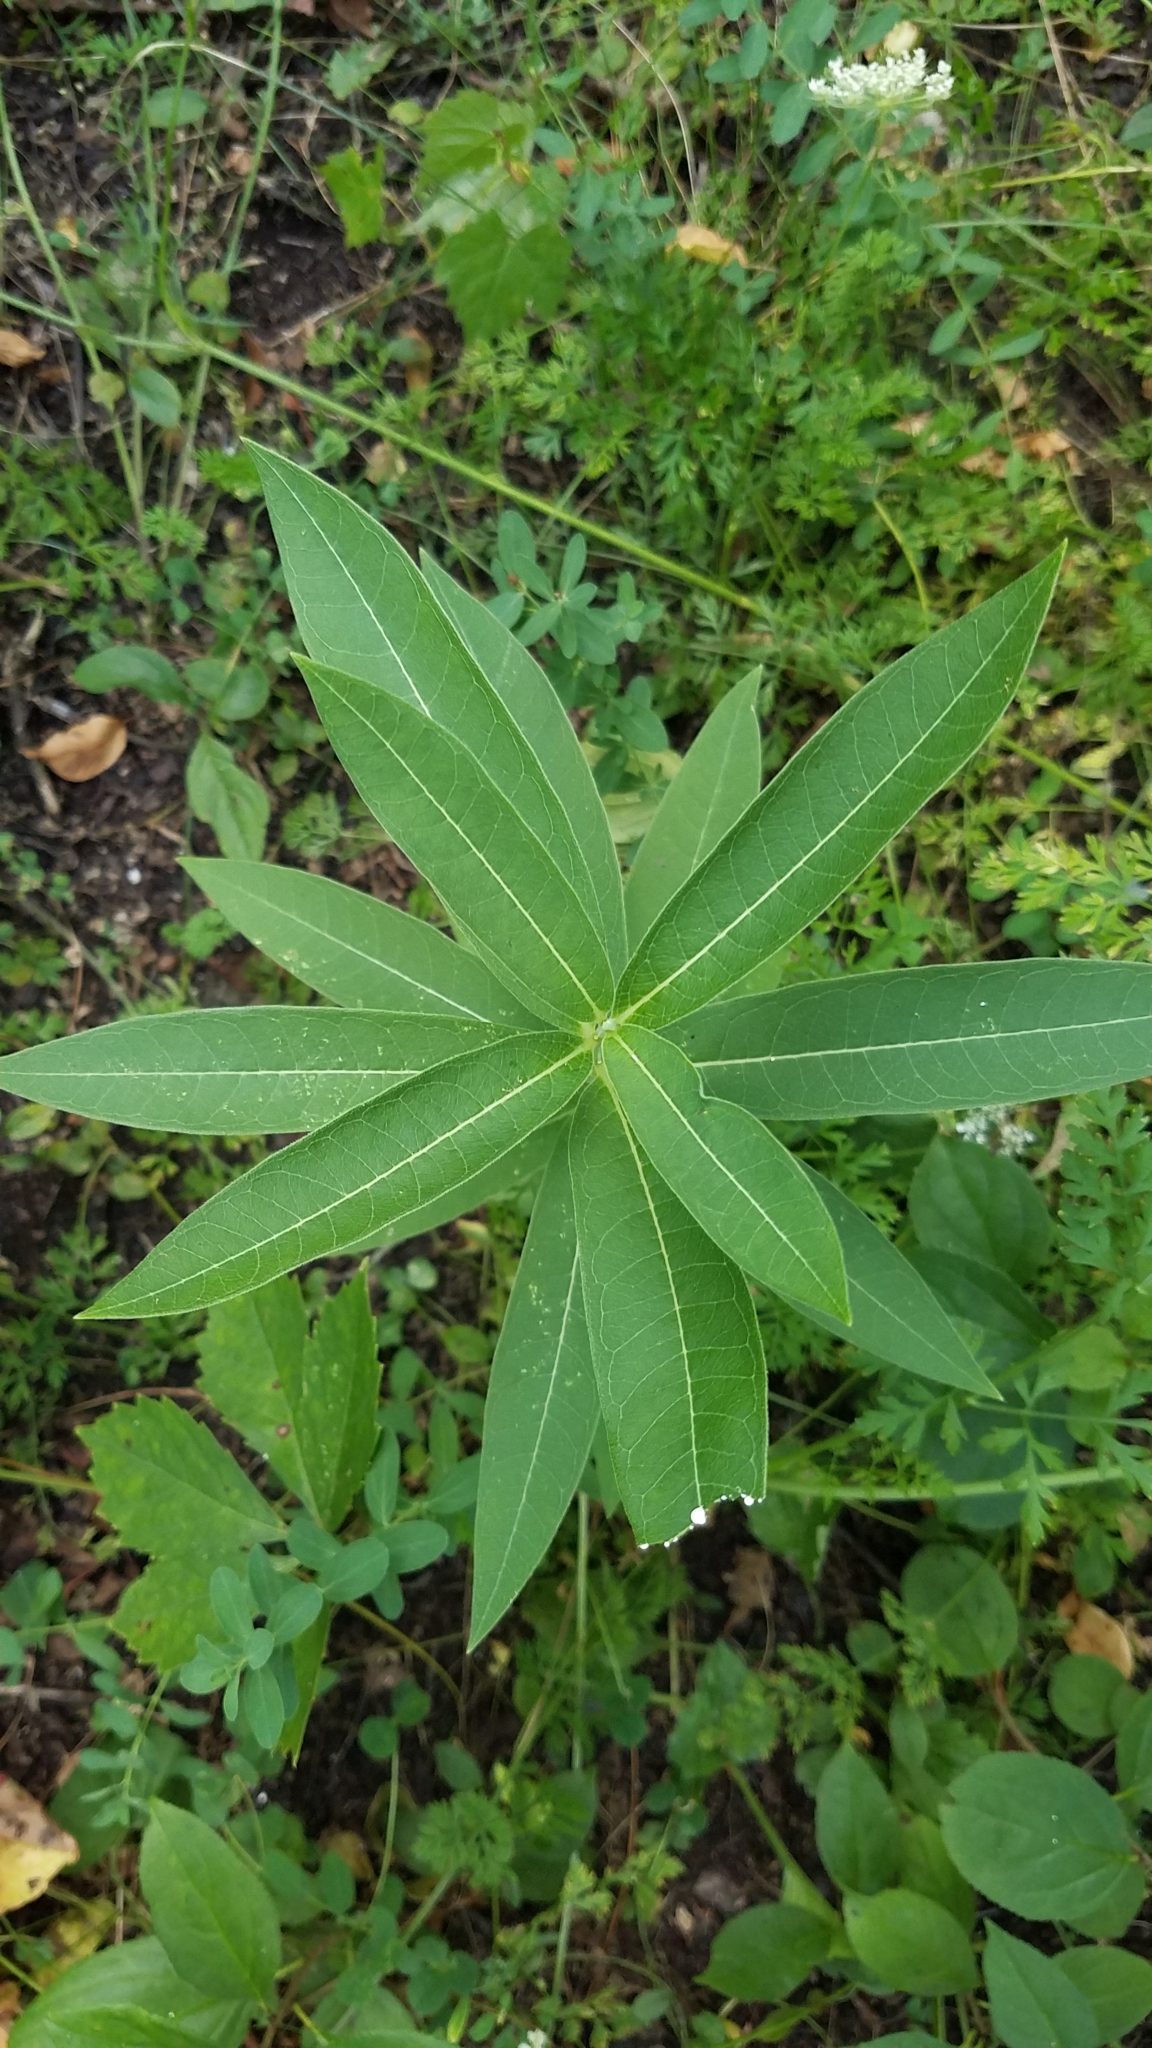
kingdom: Plantae
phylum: Tracheophyta
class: Magnoliopsida
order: Gentianales
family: Apocynaceae
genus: Asclepias
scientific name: Asclepias syriaca
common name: Common milkweed
